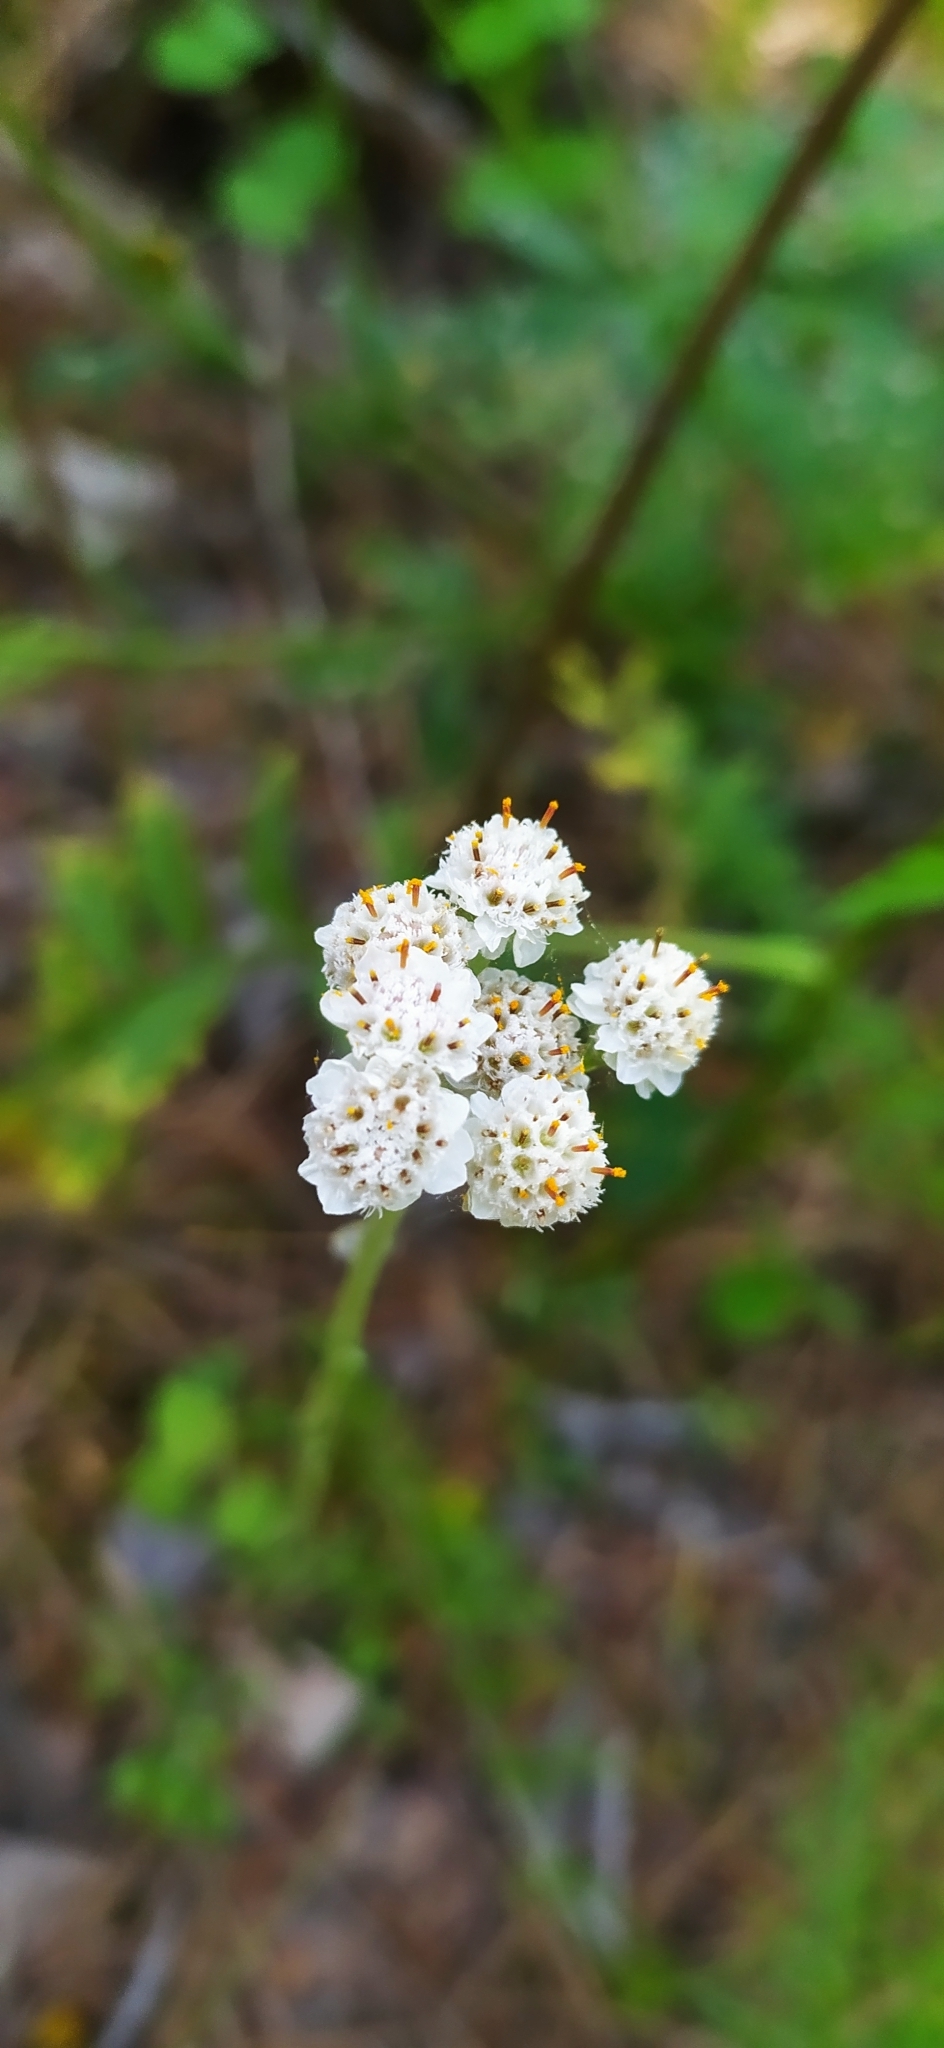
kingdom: Plantae
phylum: Tracheophyta
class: Magnoliopsida
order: Asterales
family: Asteraceae
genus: Antennaria
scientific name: Antennaria dioica
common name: Mountain everlasting
